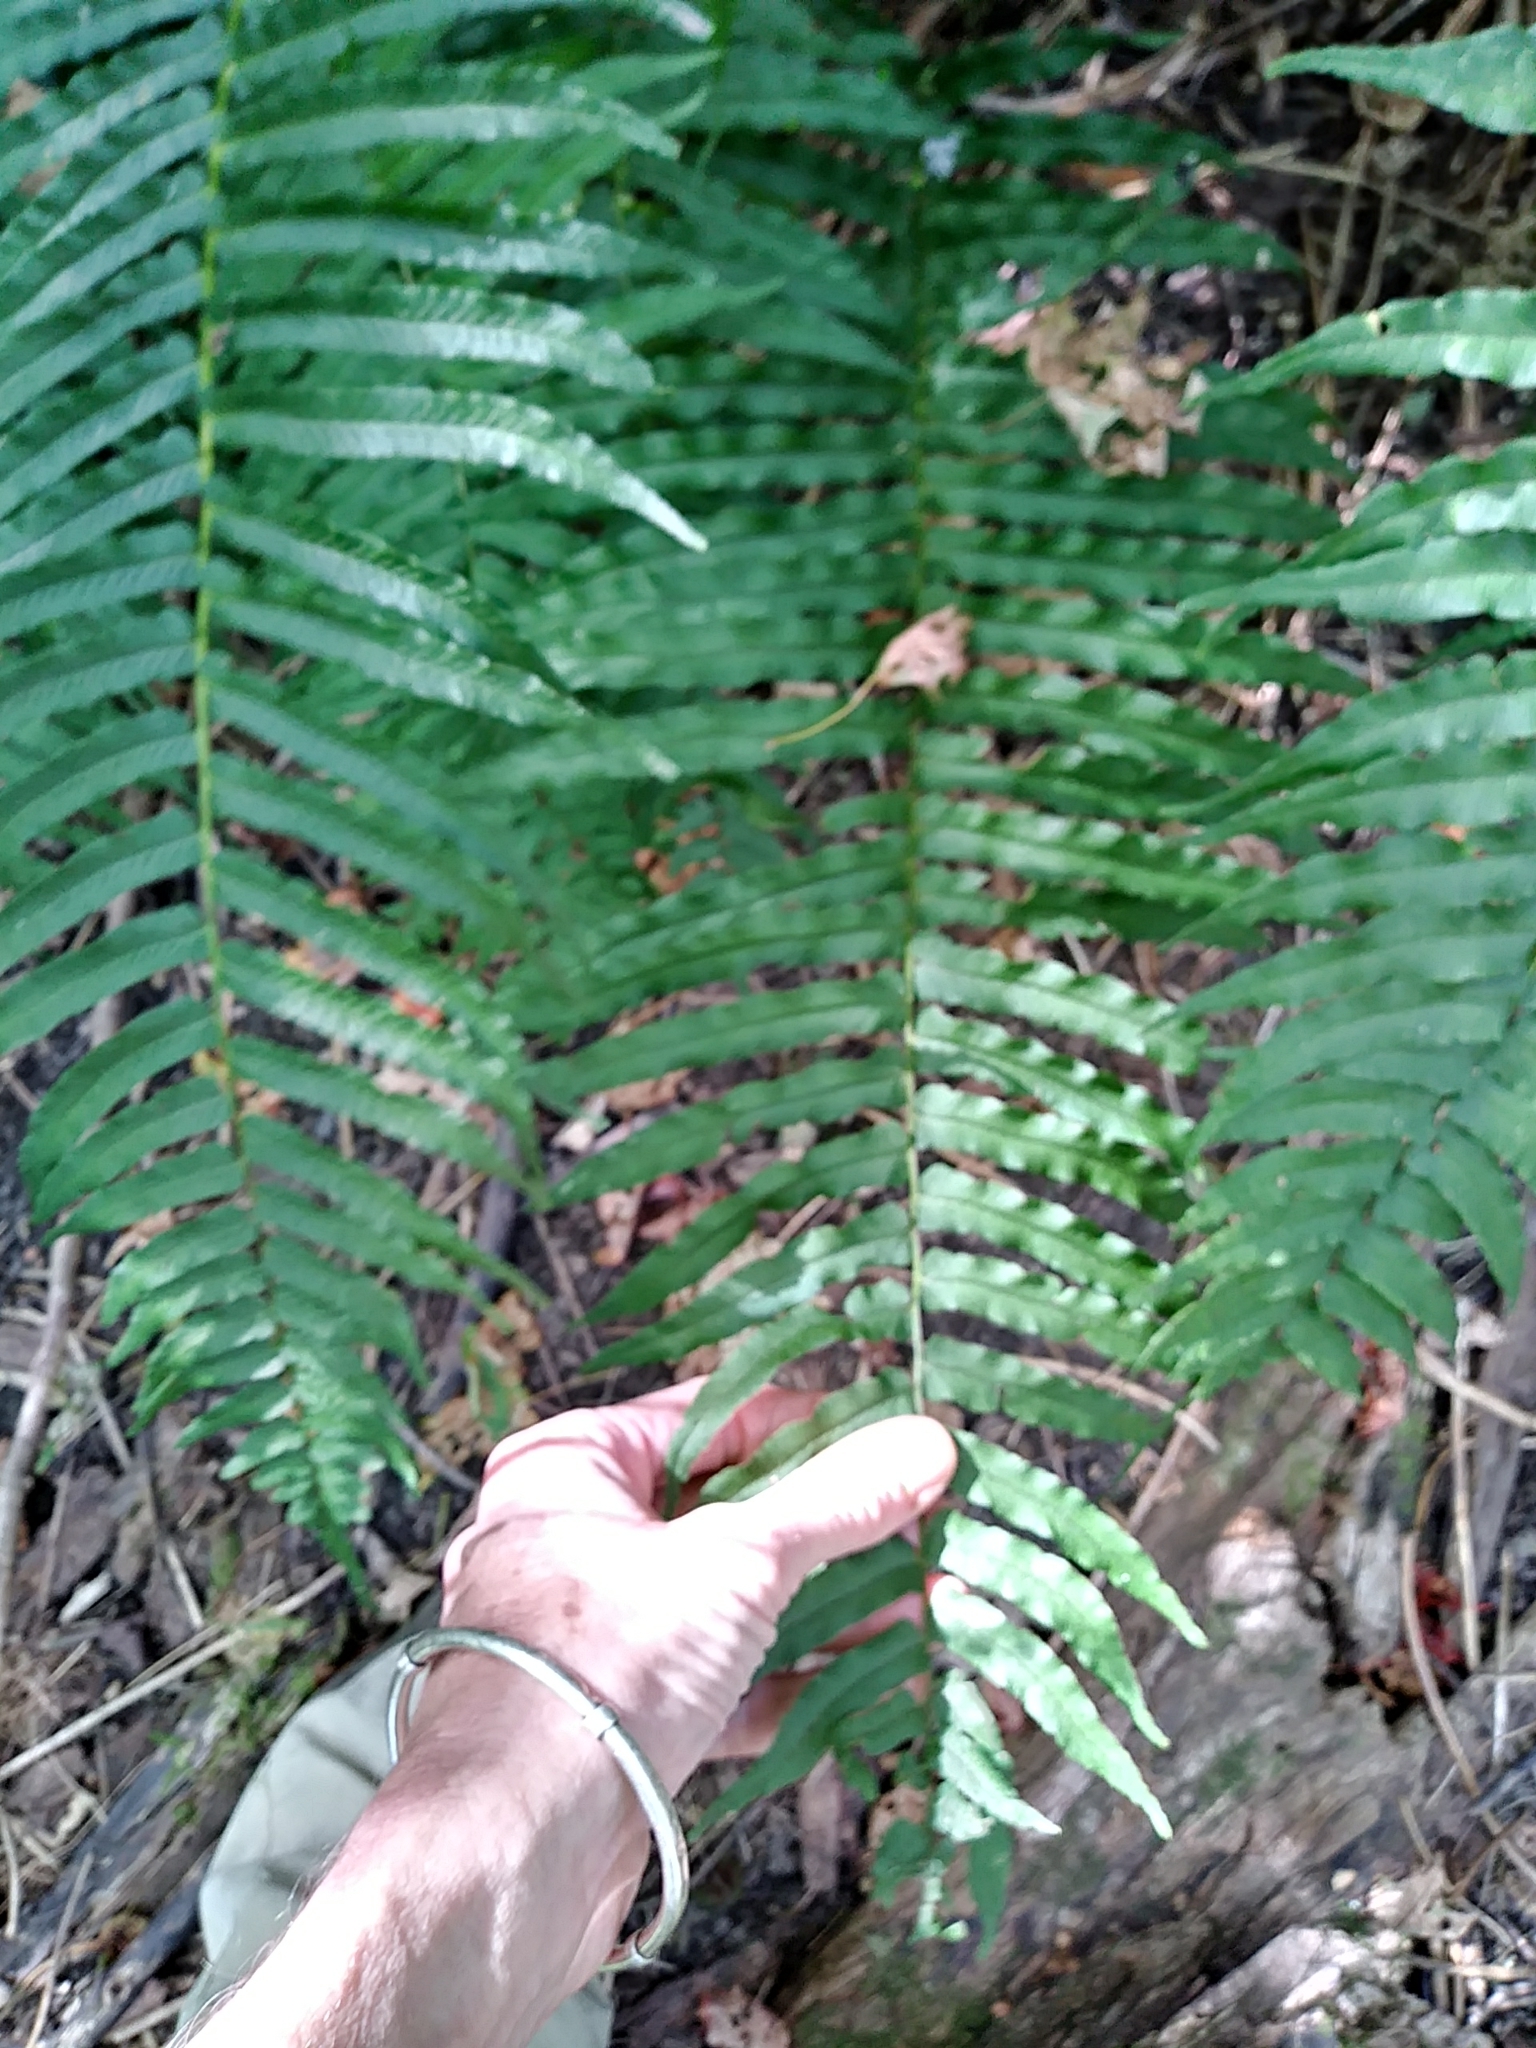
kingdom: Plantae
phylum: Tracheophyta
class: Polypodiopsida
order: Polypodiales
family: Diplaziopsidaceae
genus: Homalosorus
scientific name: Homalosorus pycnocarpos
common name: Glade fern
